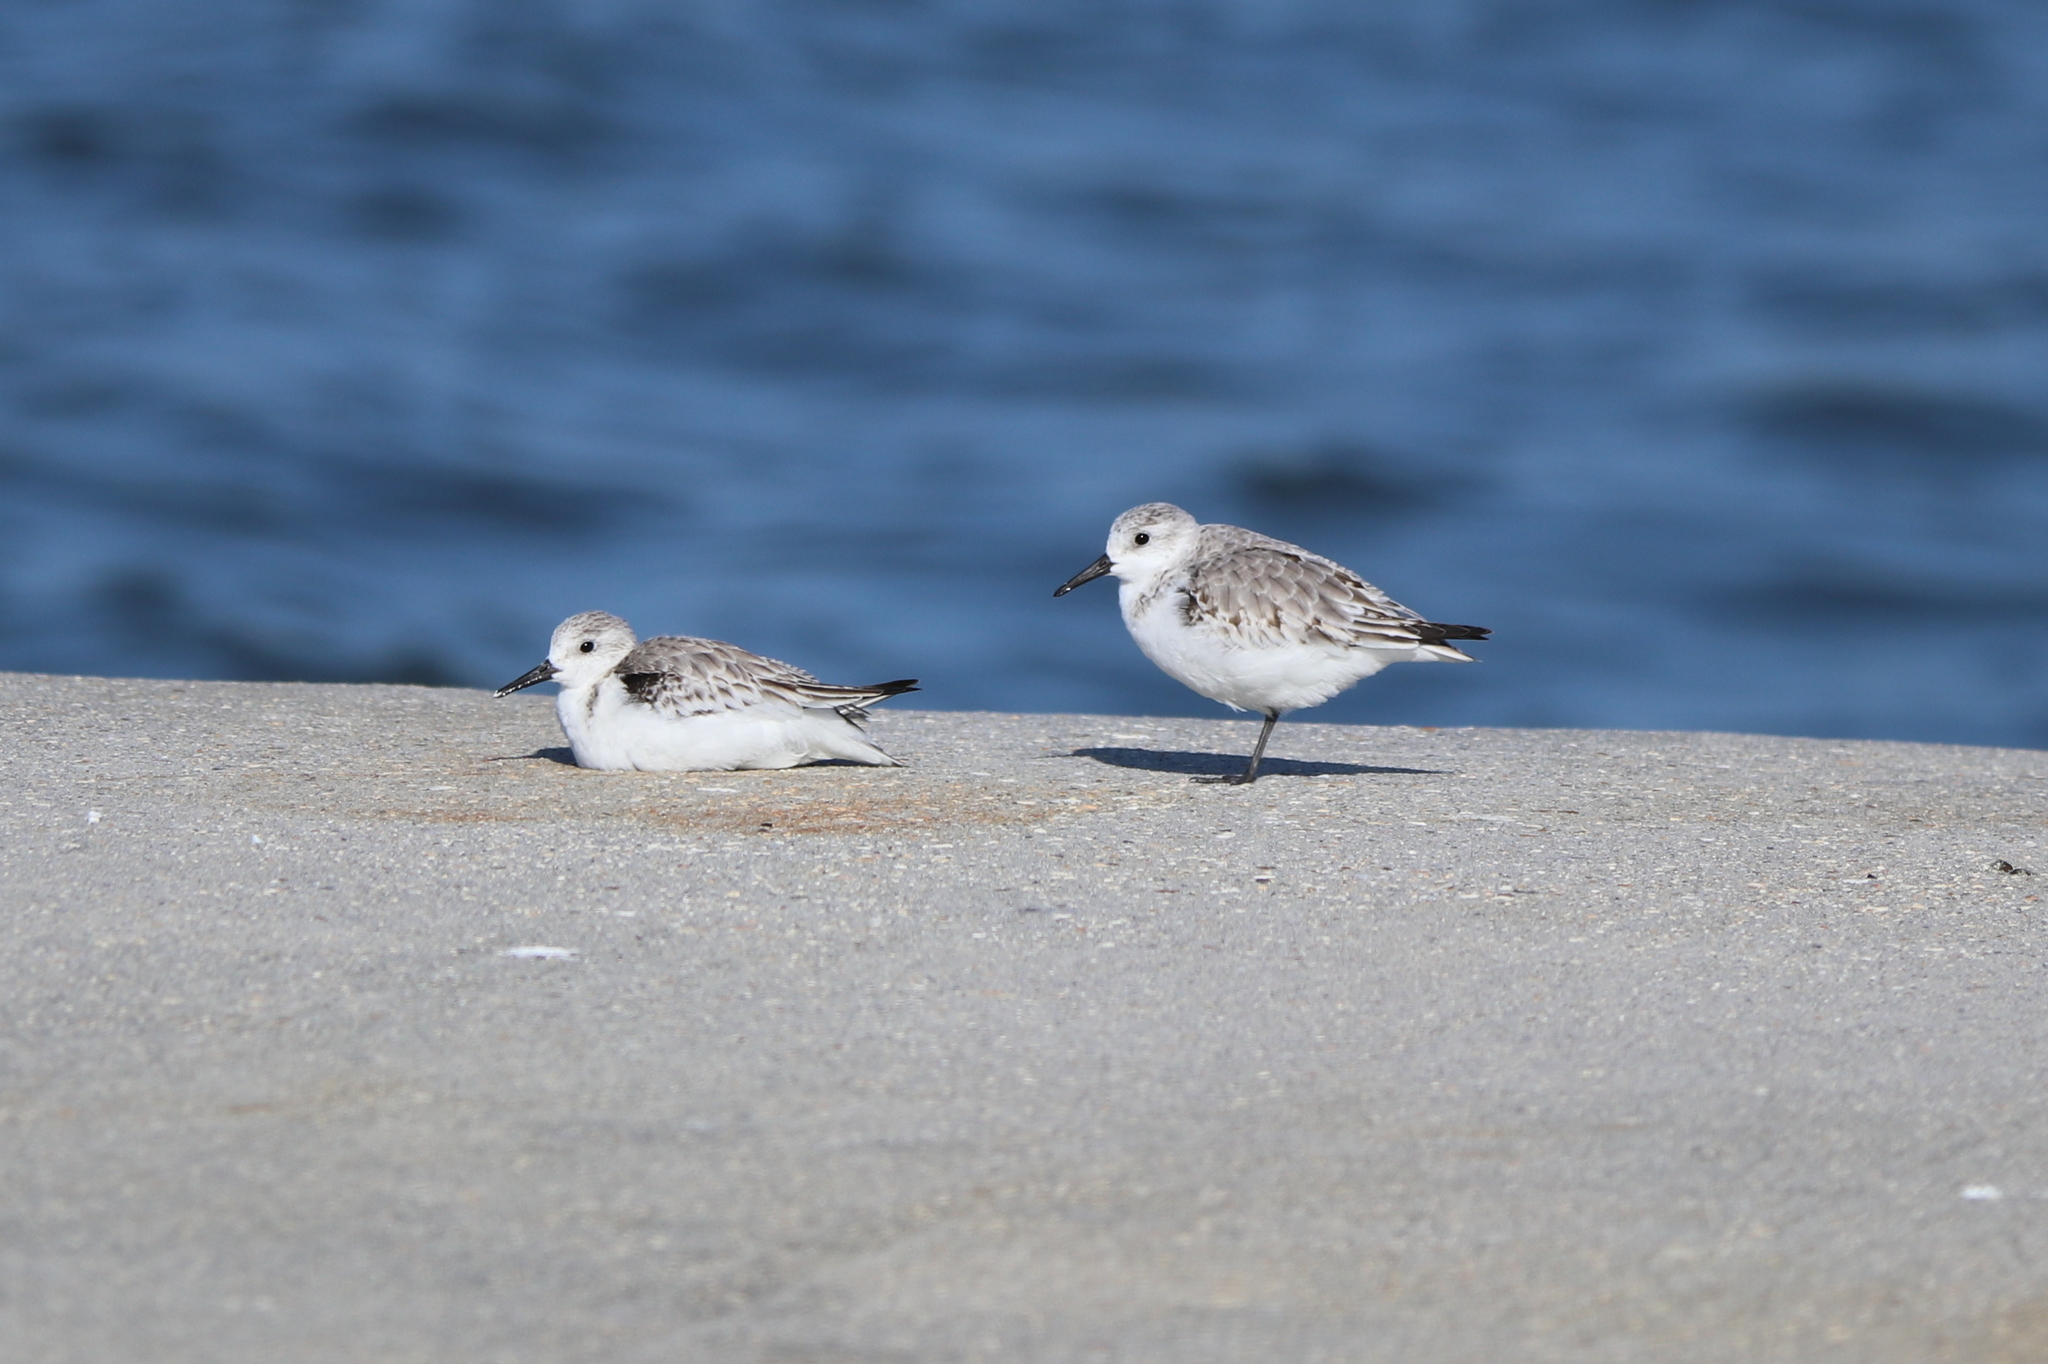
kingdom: Animalia
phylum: Chordata
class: Aves
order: Charadriiformes
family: Scolopacidae
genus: Calidris
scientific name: Calidris alba
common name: Sanderling
